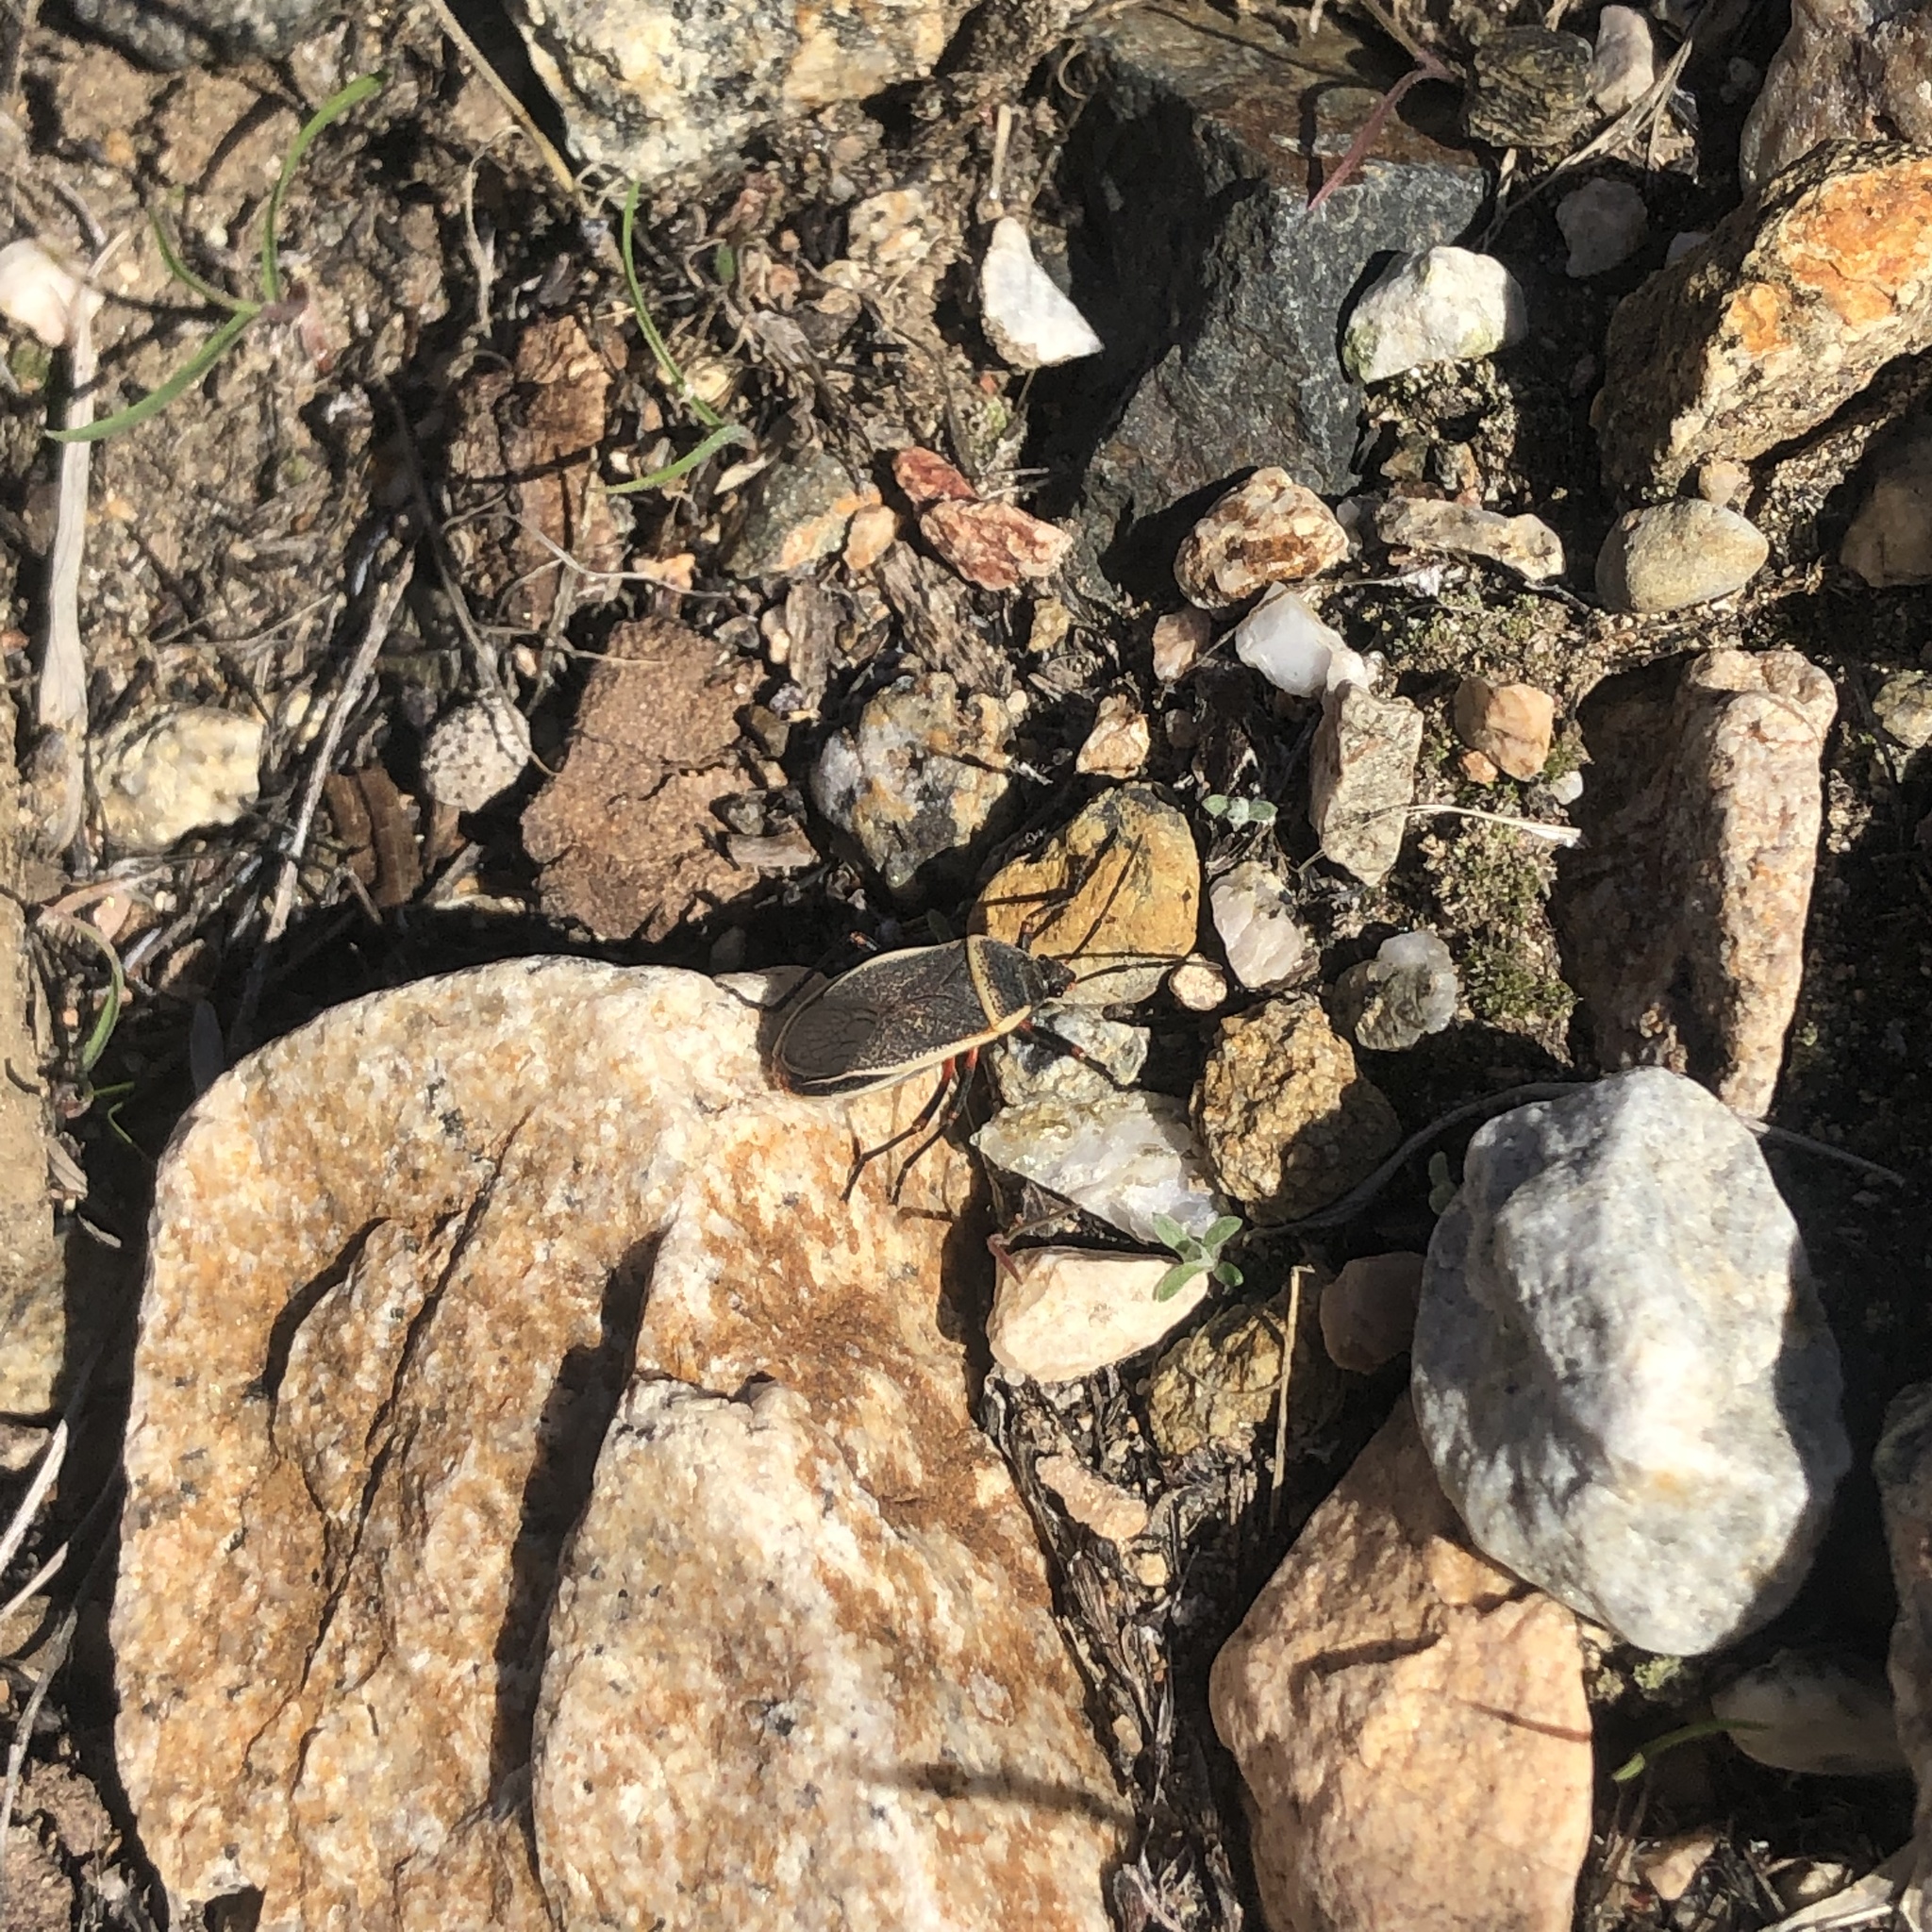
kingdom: Animalia
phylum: Arthropoda
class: Insecta
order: Hemiptera
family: Largidae
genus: Largus
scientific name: Largus californicus
